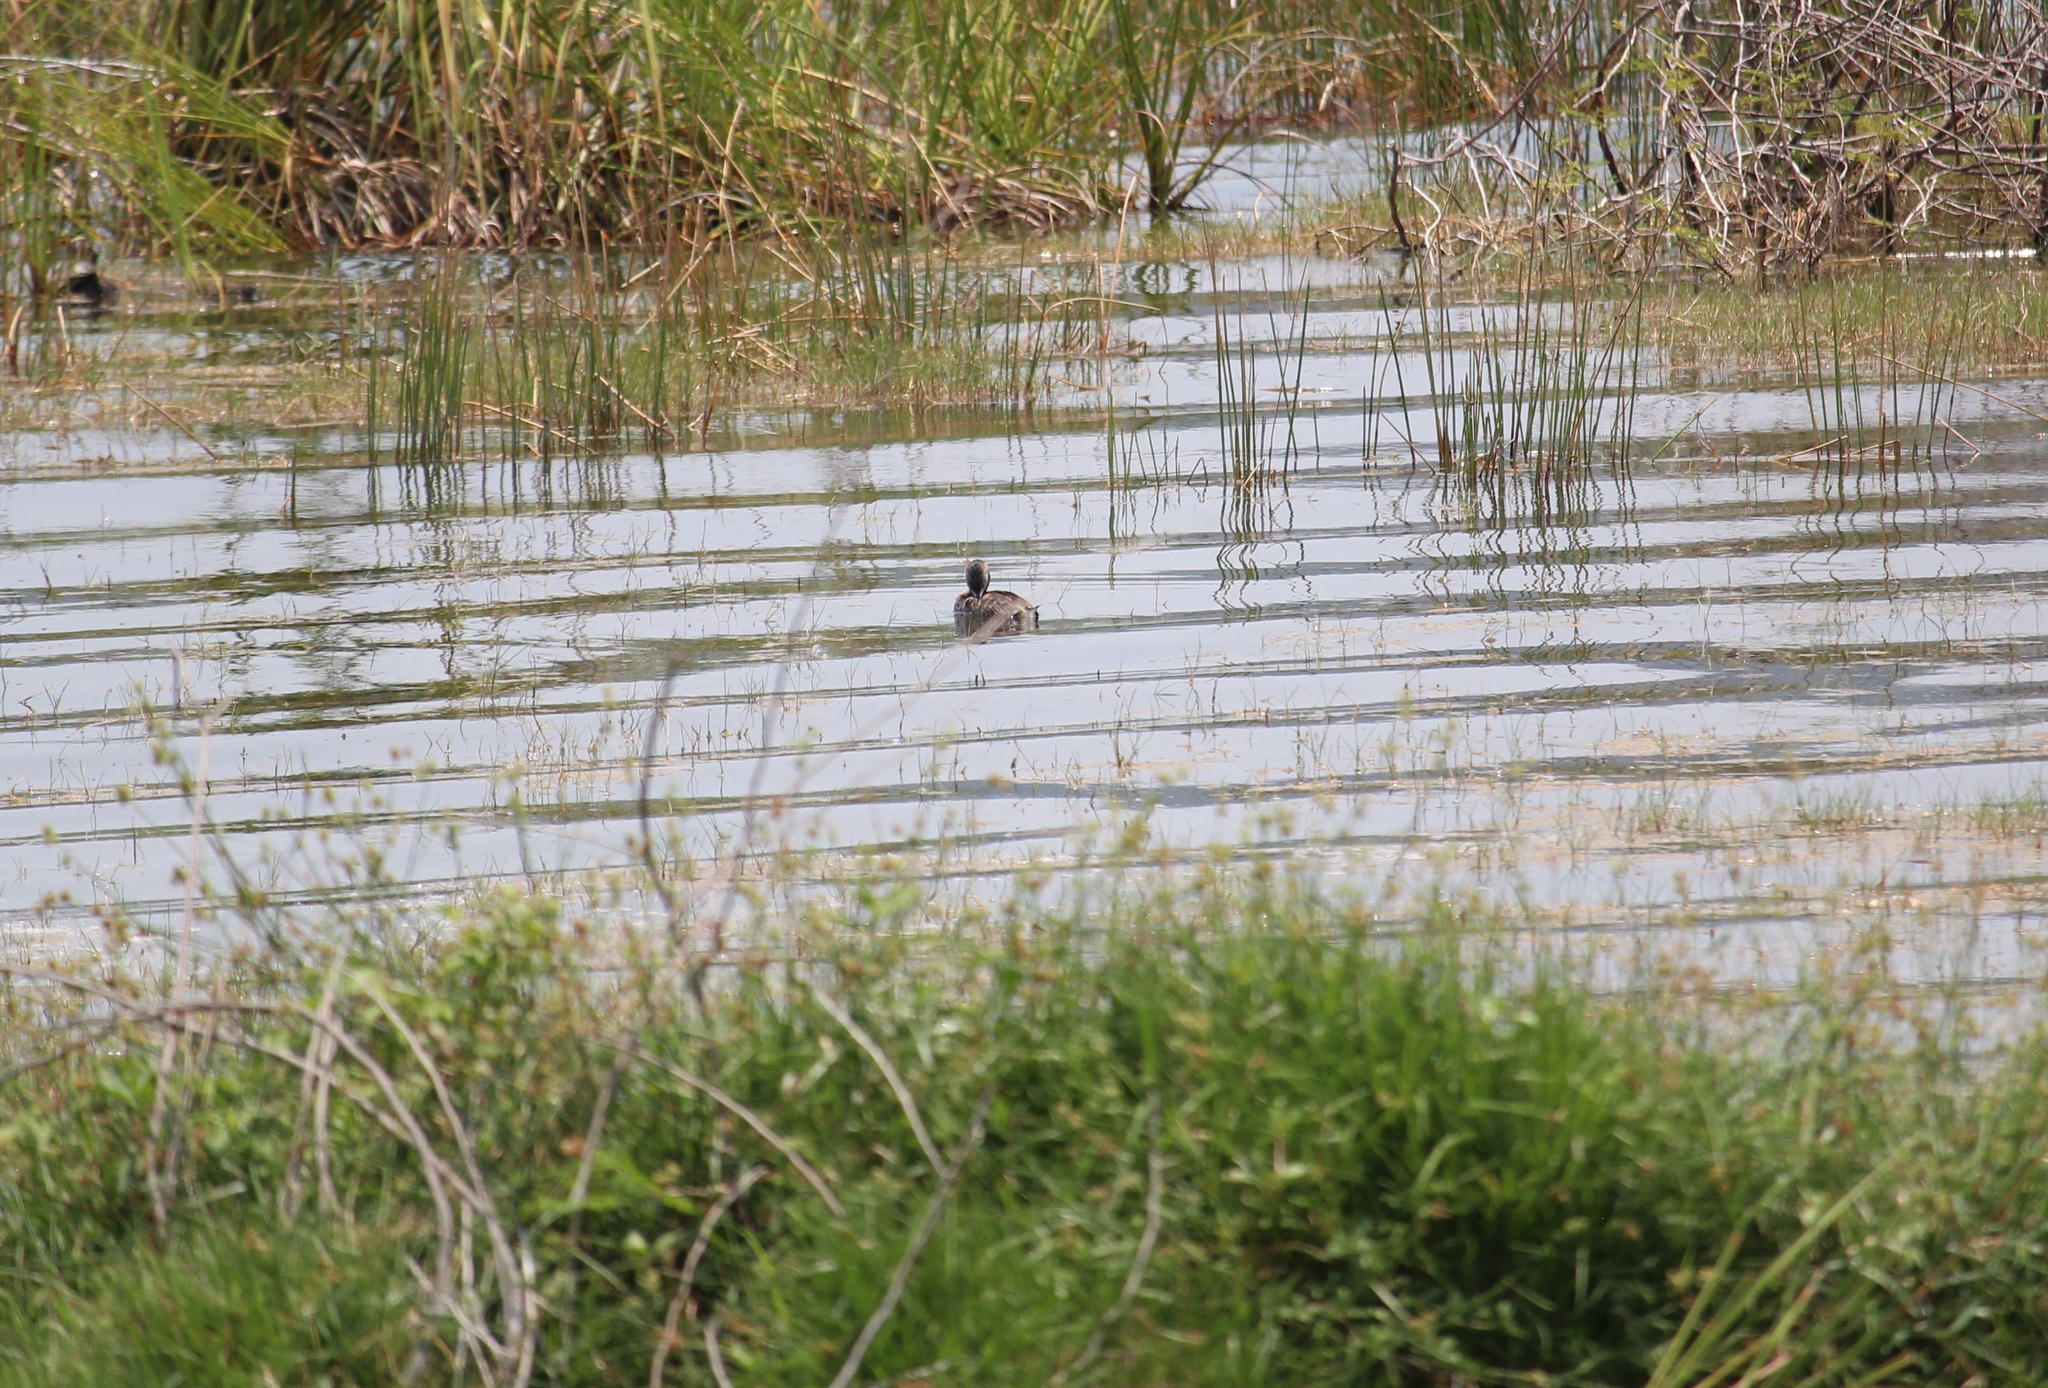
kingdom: Animalia
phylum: Chordata
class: Aves
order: Podicipediformes
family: Podicipedidae
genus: Podilymbus
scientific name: Podilymbus podiceps
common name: Pied-billed grebe
